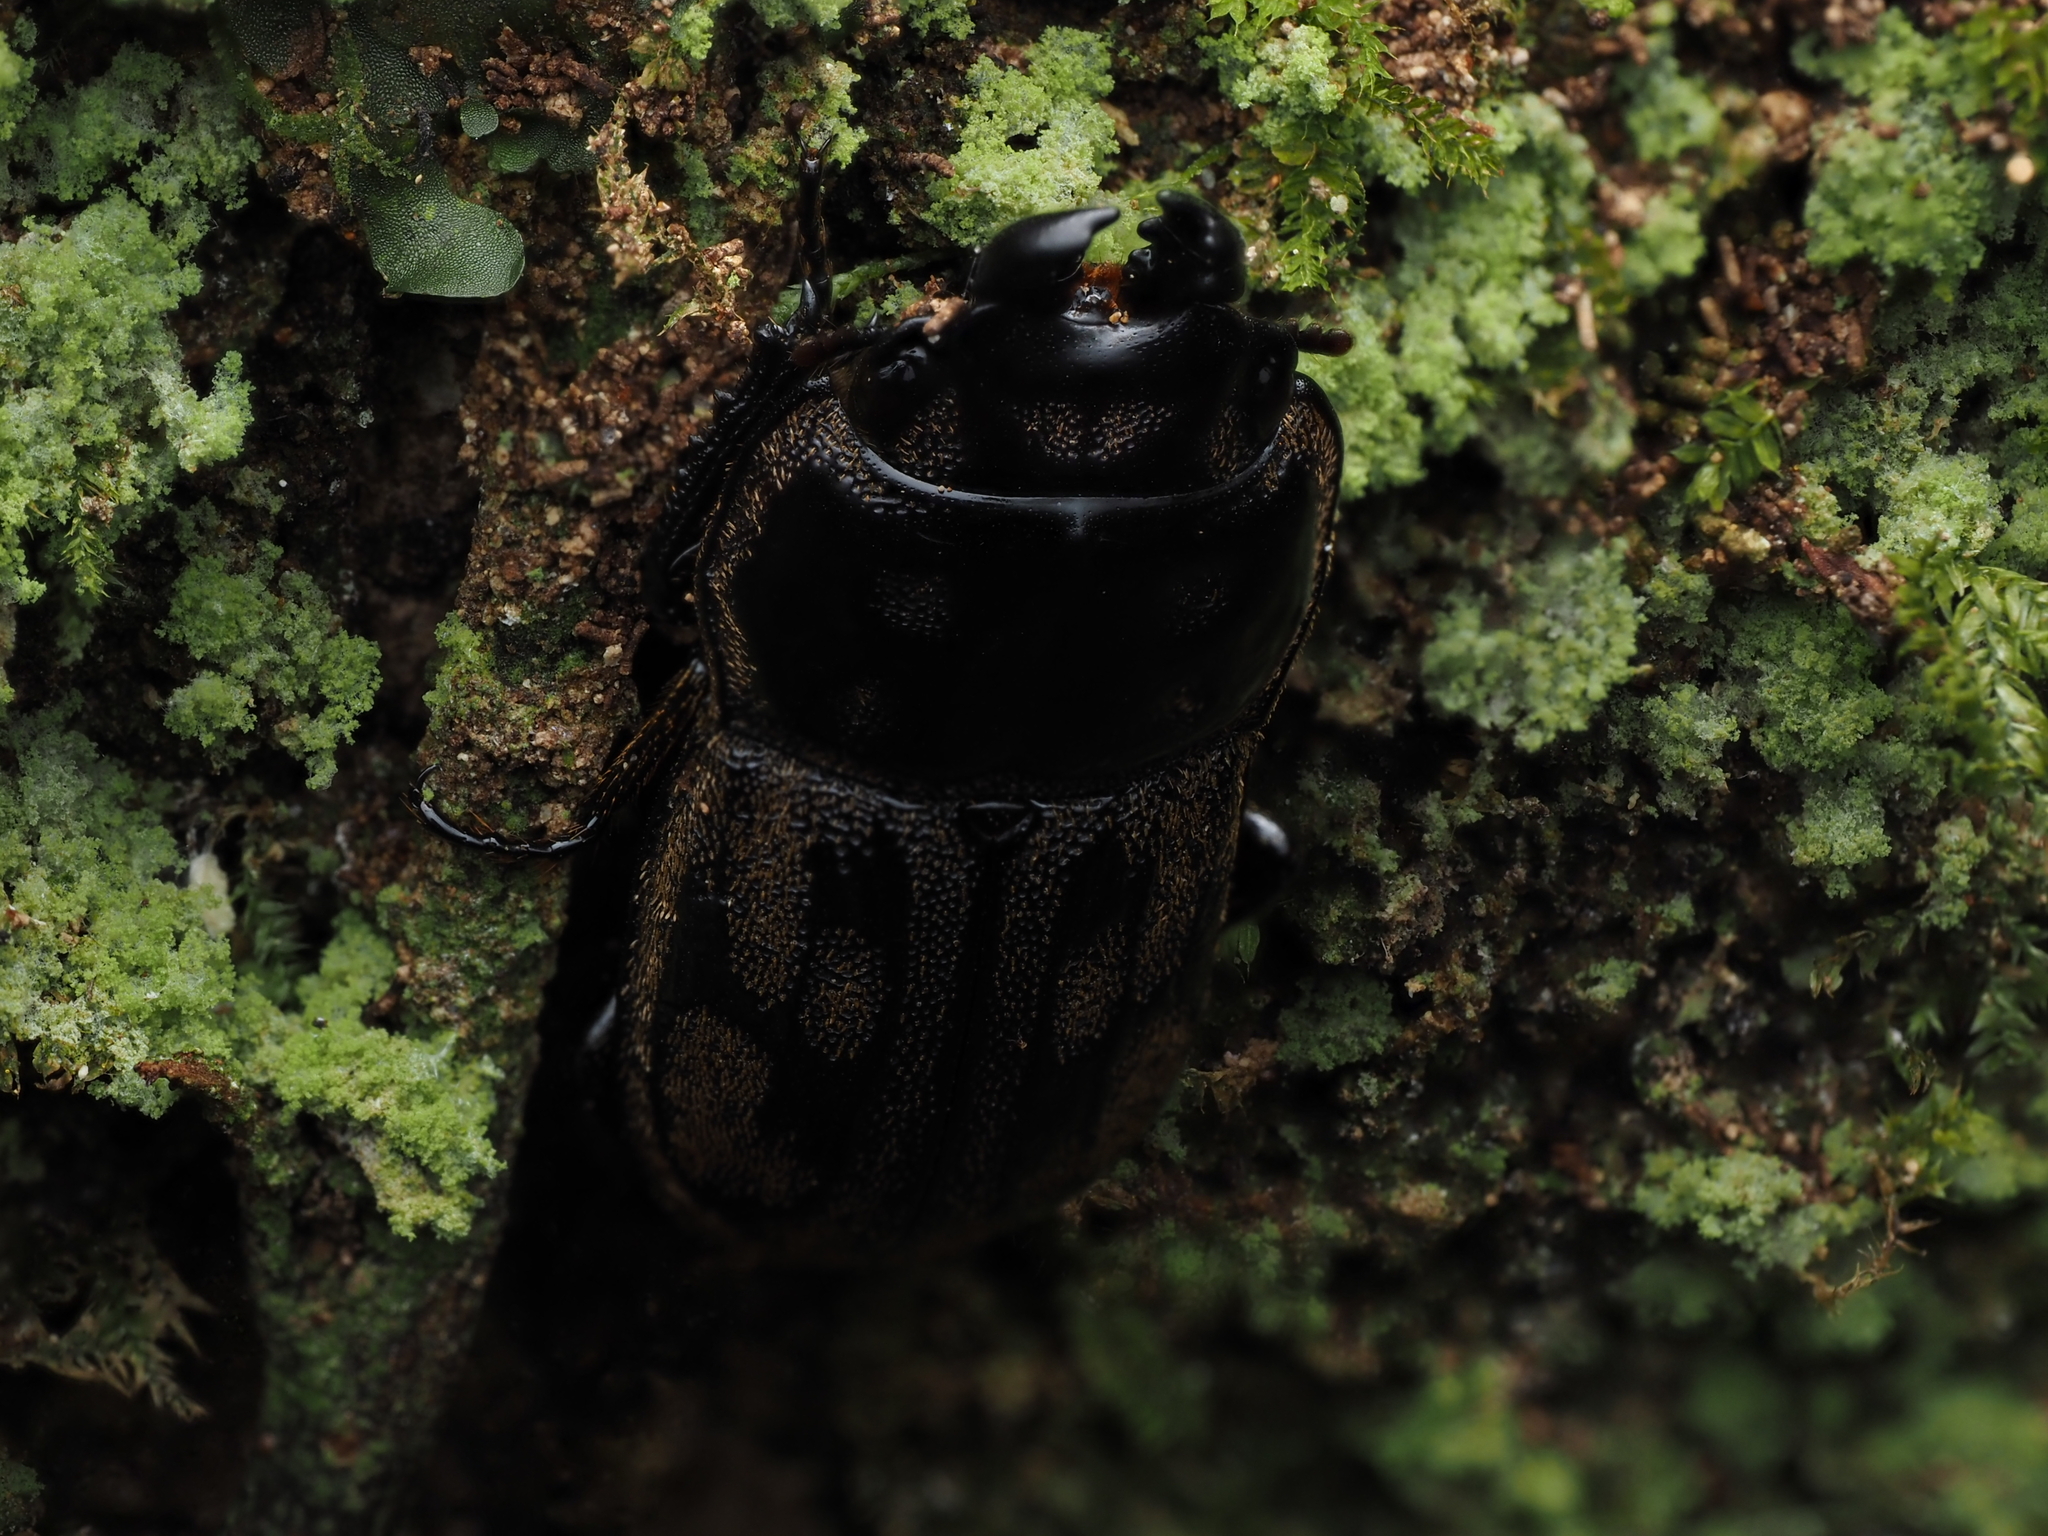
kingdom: Animalia
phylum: Arthropoda
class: Insecta
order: Coleoptera
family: Lucanidae
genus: Paralissotes
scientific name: Paralissotes reticulatus
